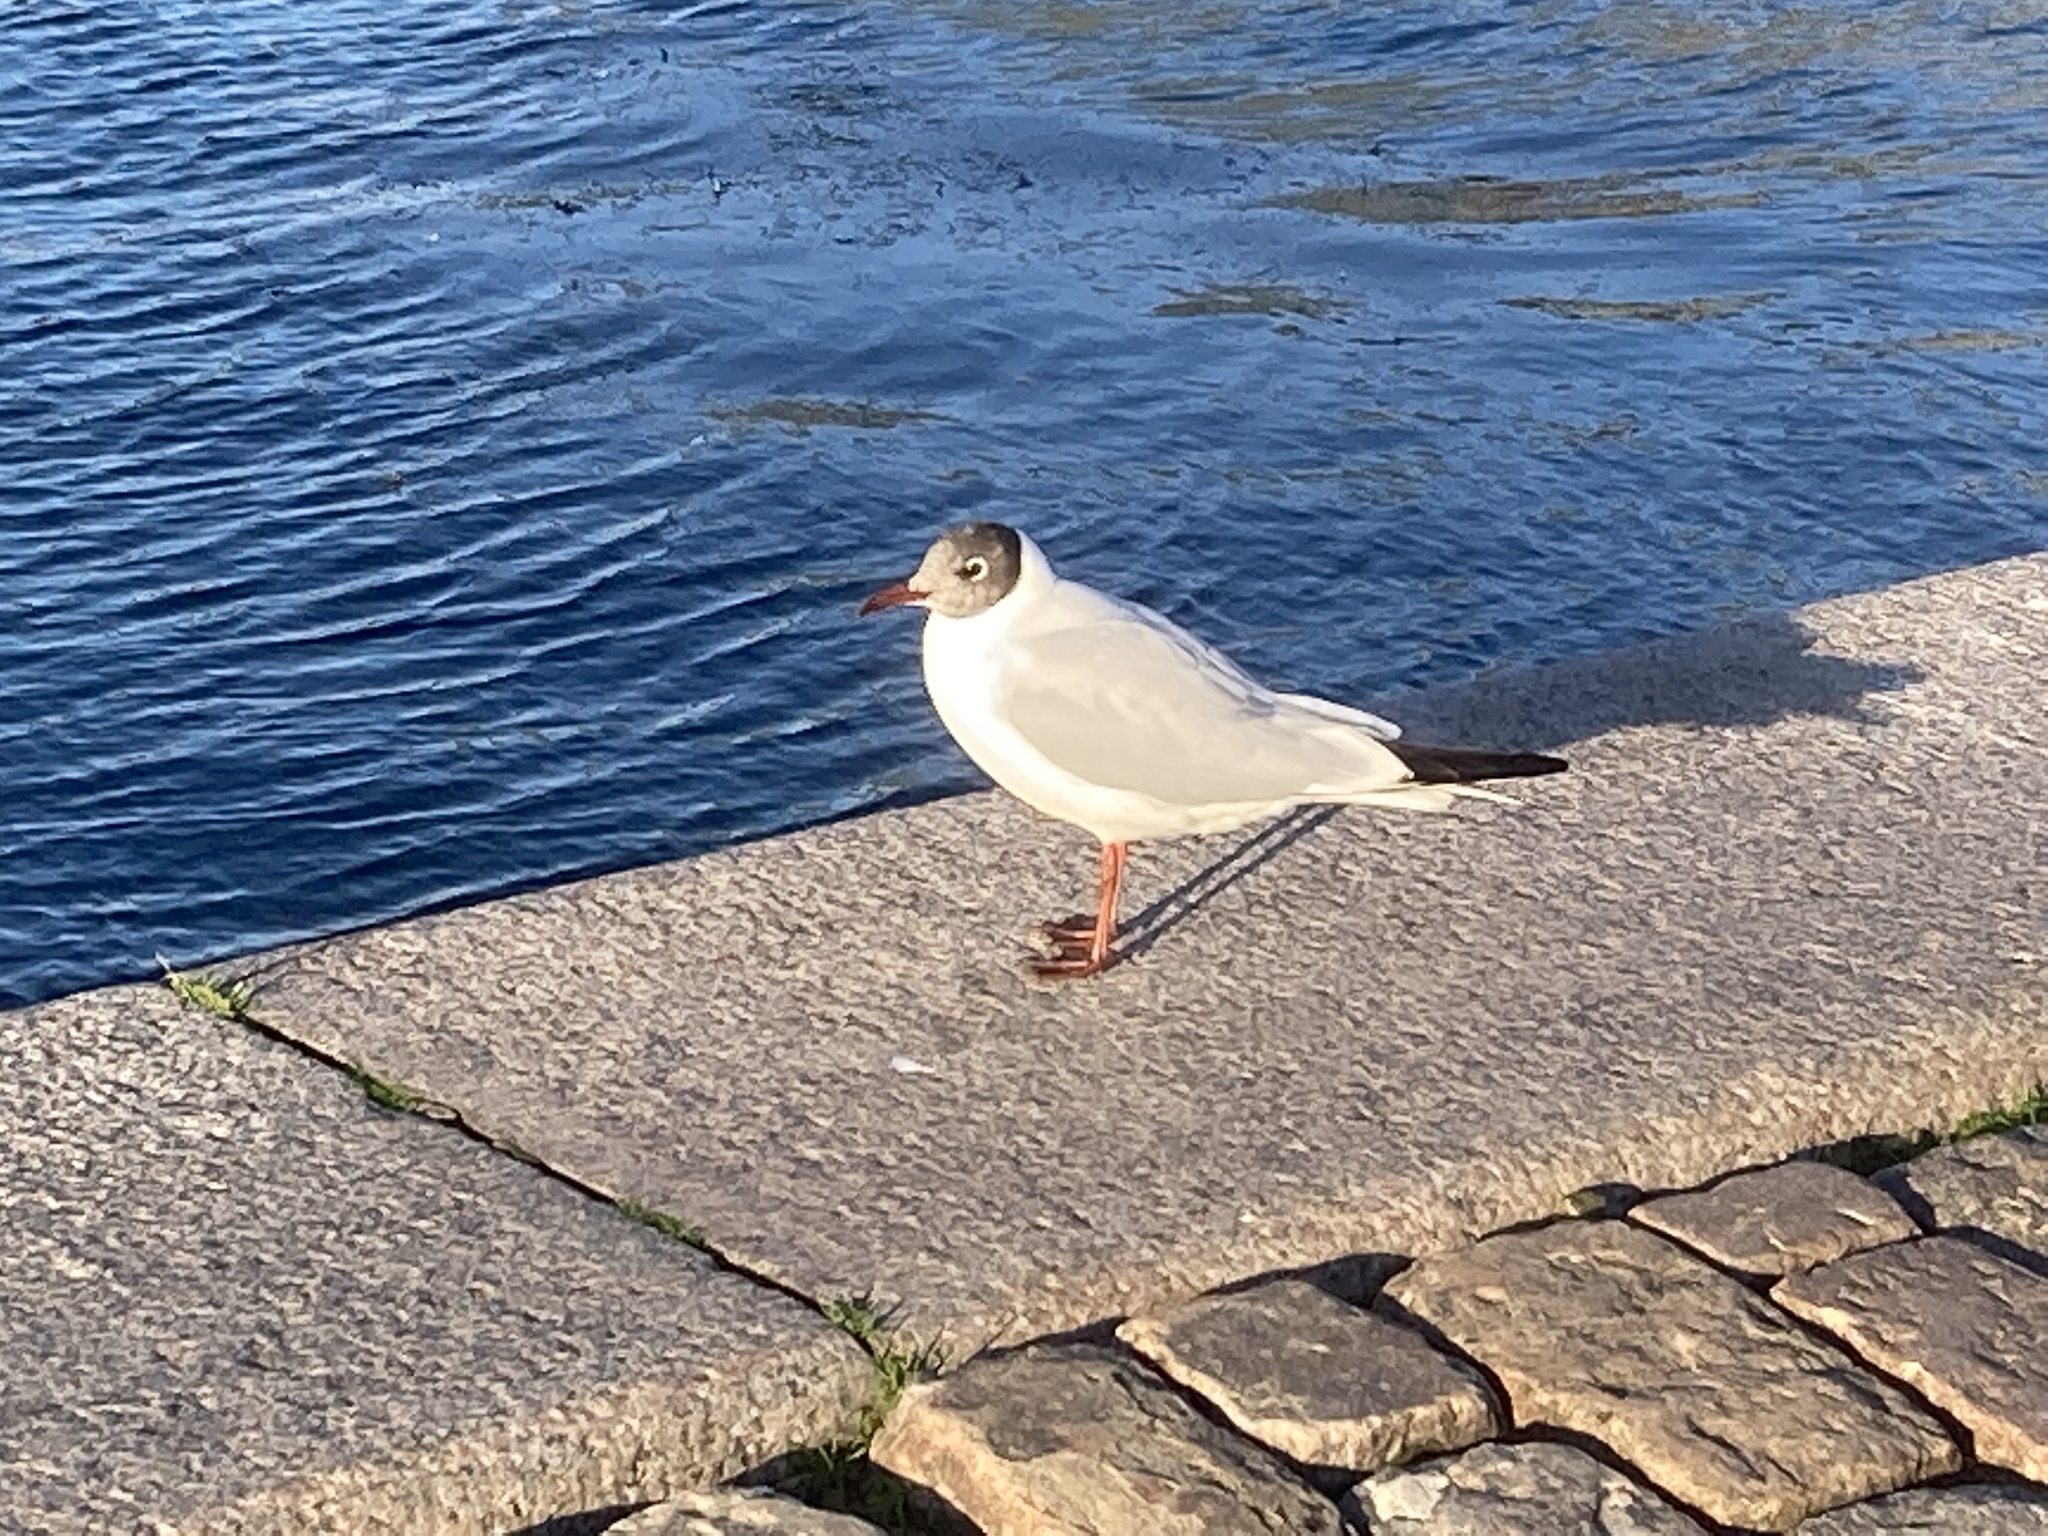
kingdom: Animalia
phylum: Chordata
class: Aves
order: Charadriiformes
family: Laridae
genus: Chroicocephalus
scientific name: Chroicocephalus ridibundus
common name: Black-headed gull
